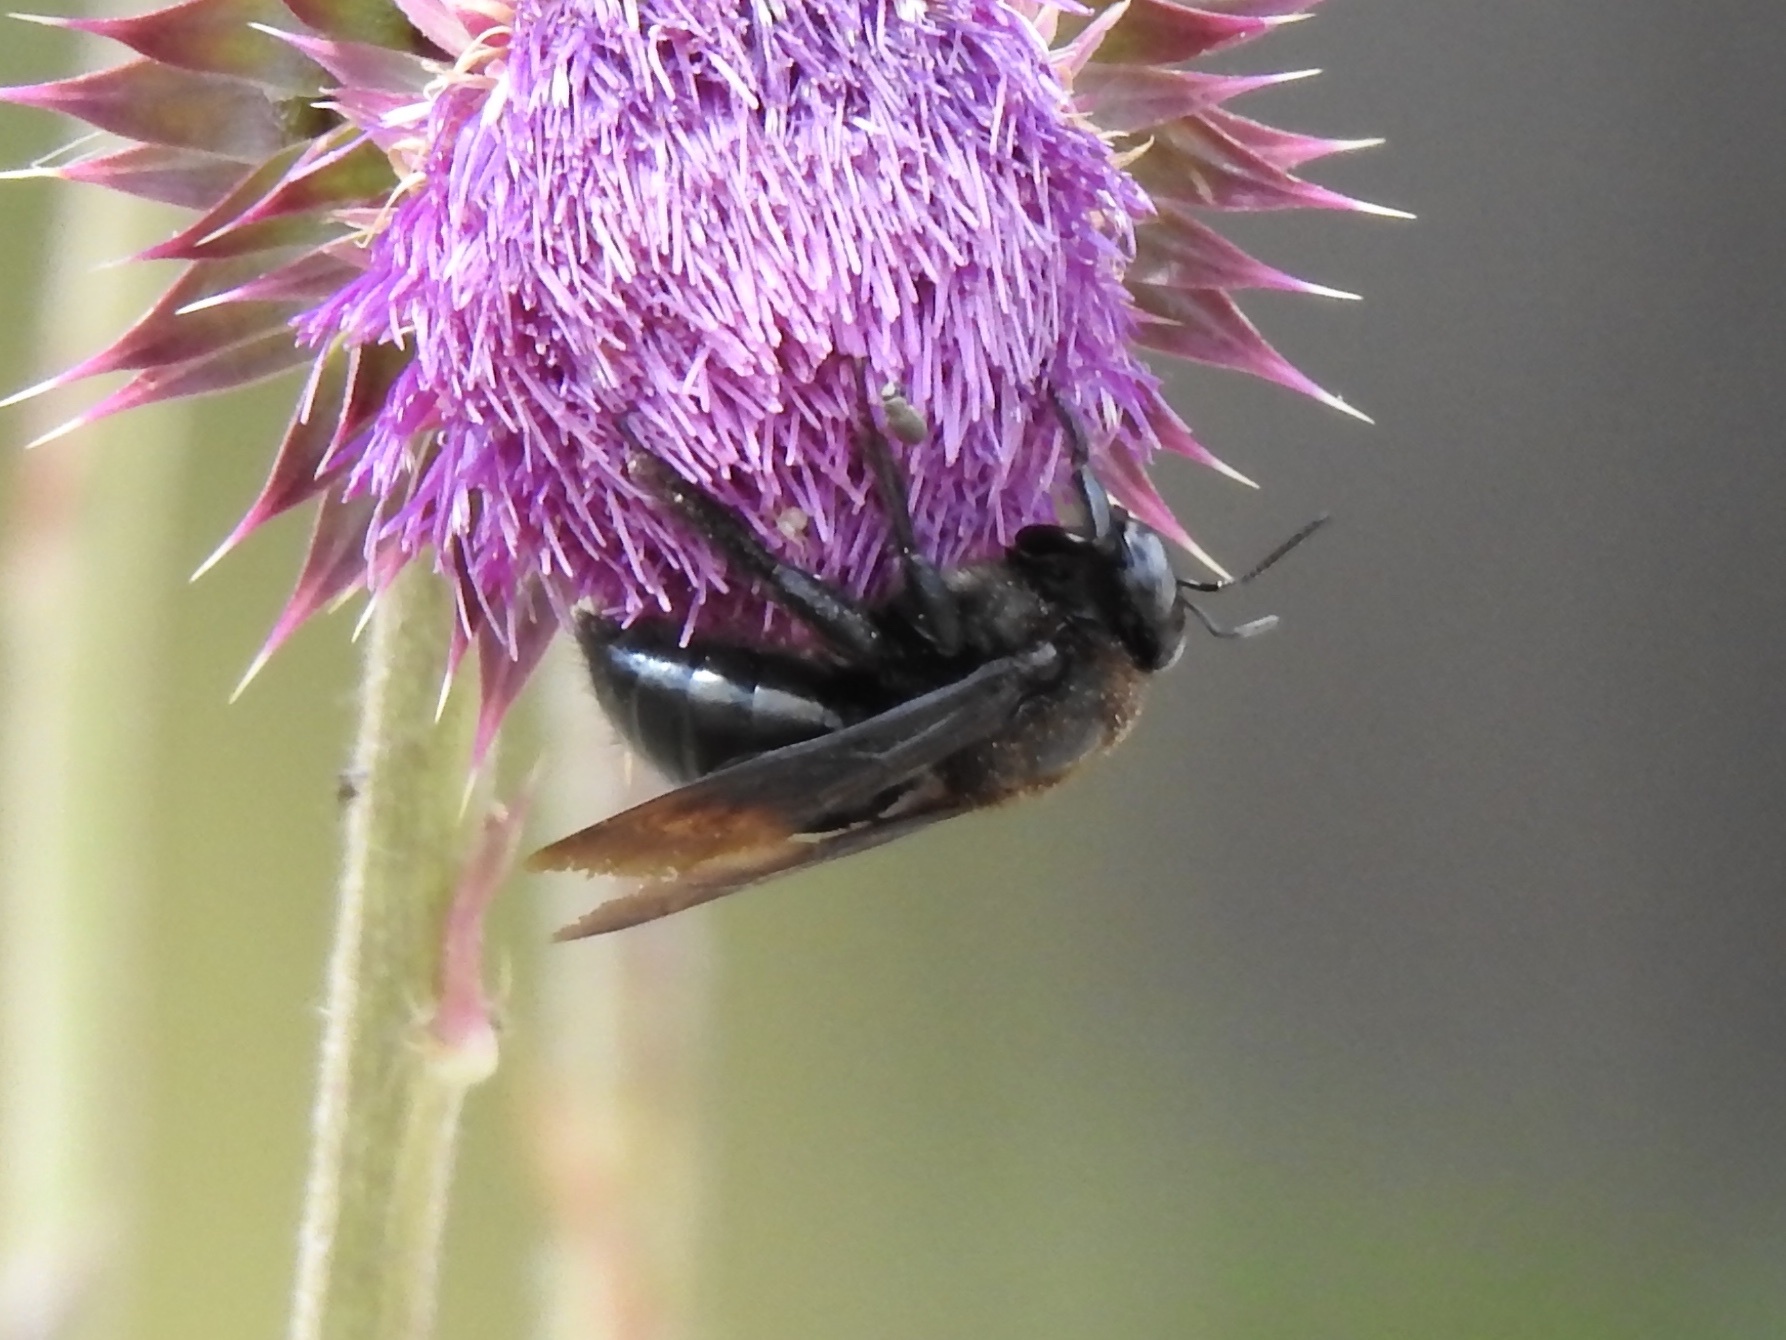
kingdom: Animalia
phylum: Arthropoda
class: Insecta
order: Hymenoptera
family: Apidae
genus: Xylocopa
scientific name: Xylocopa californica
